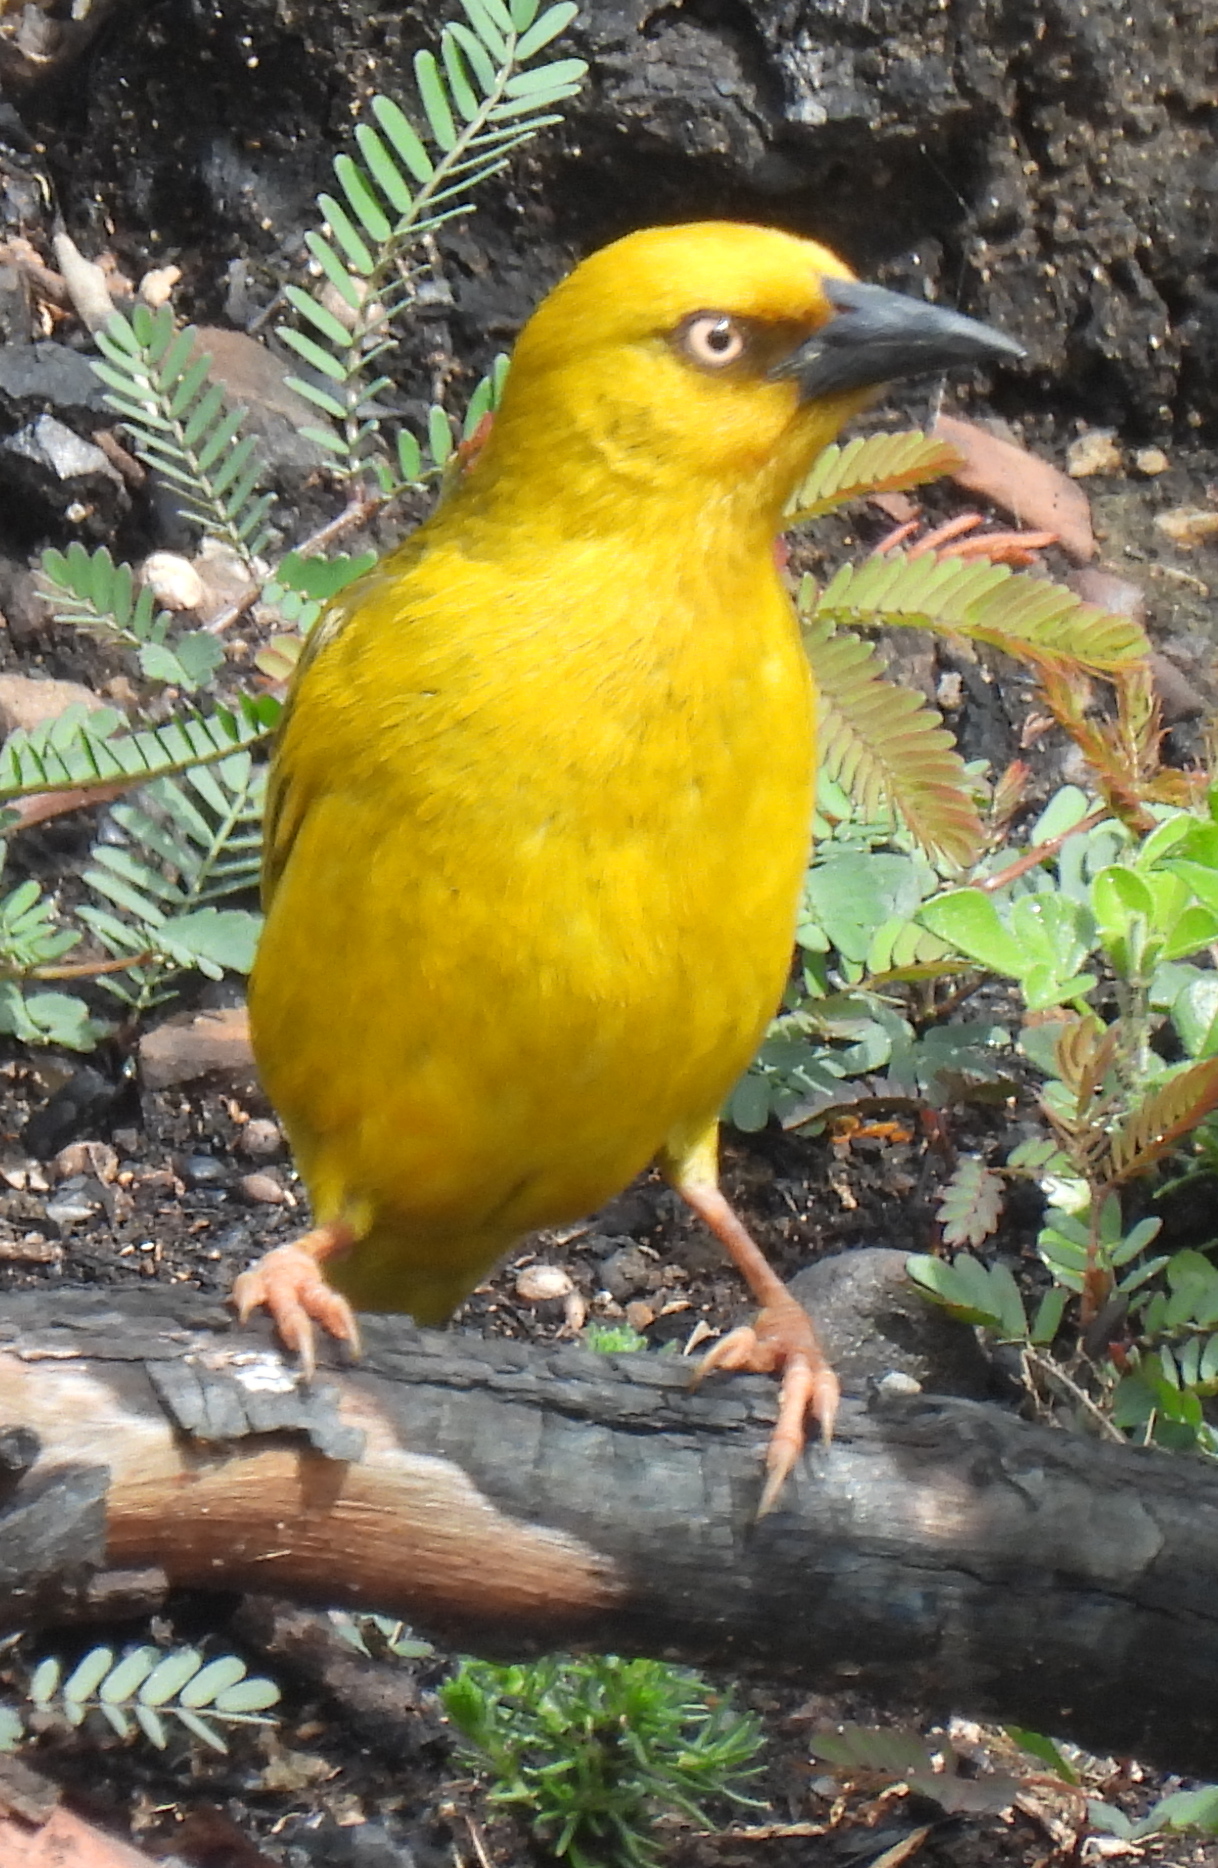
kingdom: Animalia
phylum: Chordata
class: Aves
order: Passeriformes
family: Ploceidae
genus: Ploceus
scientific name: Ploceus capensis
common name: Cape weaver
